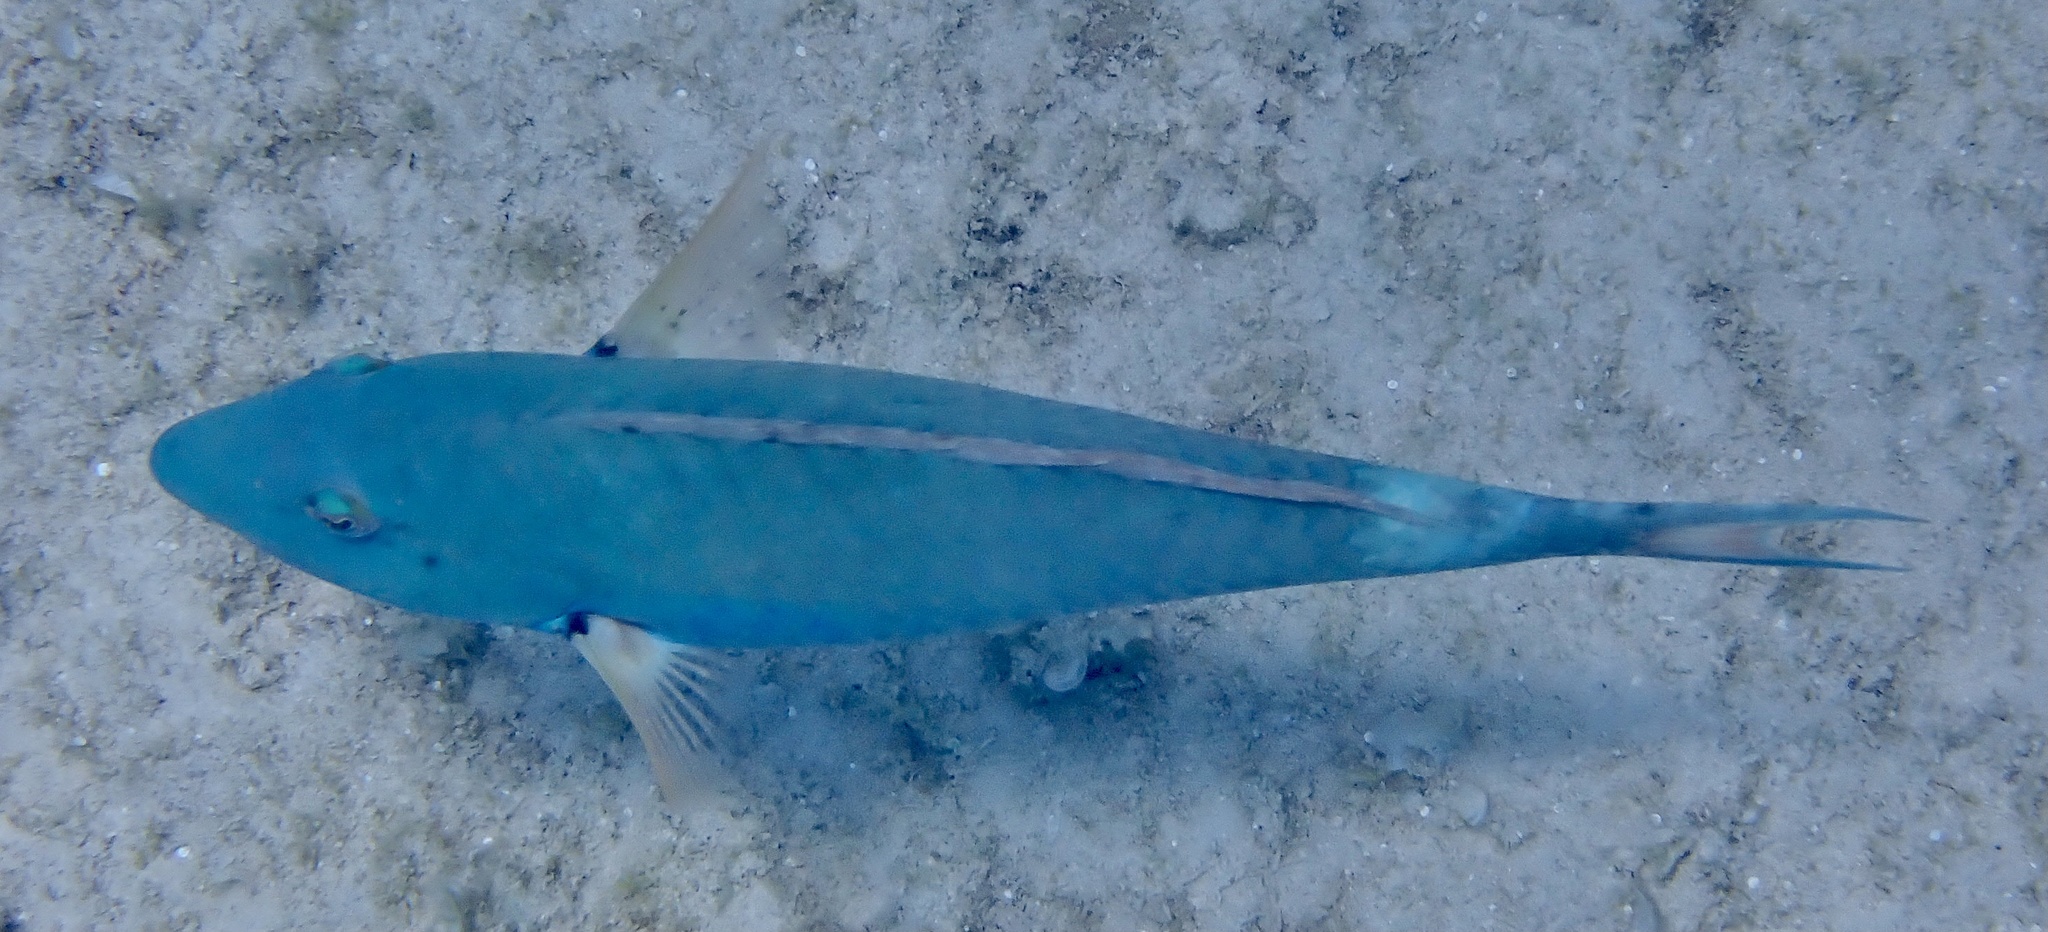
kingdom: Animalia
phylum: Chordata
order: Perciformes
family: Scaridae
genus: Sparisoma
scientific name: Sparisoma chrysopterum
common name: Redtail parrotfish
